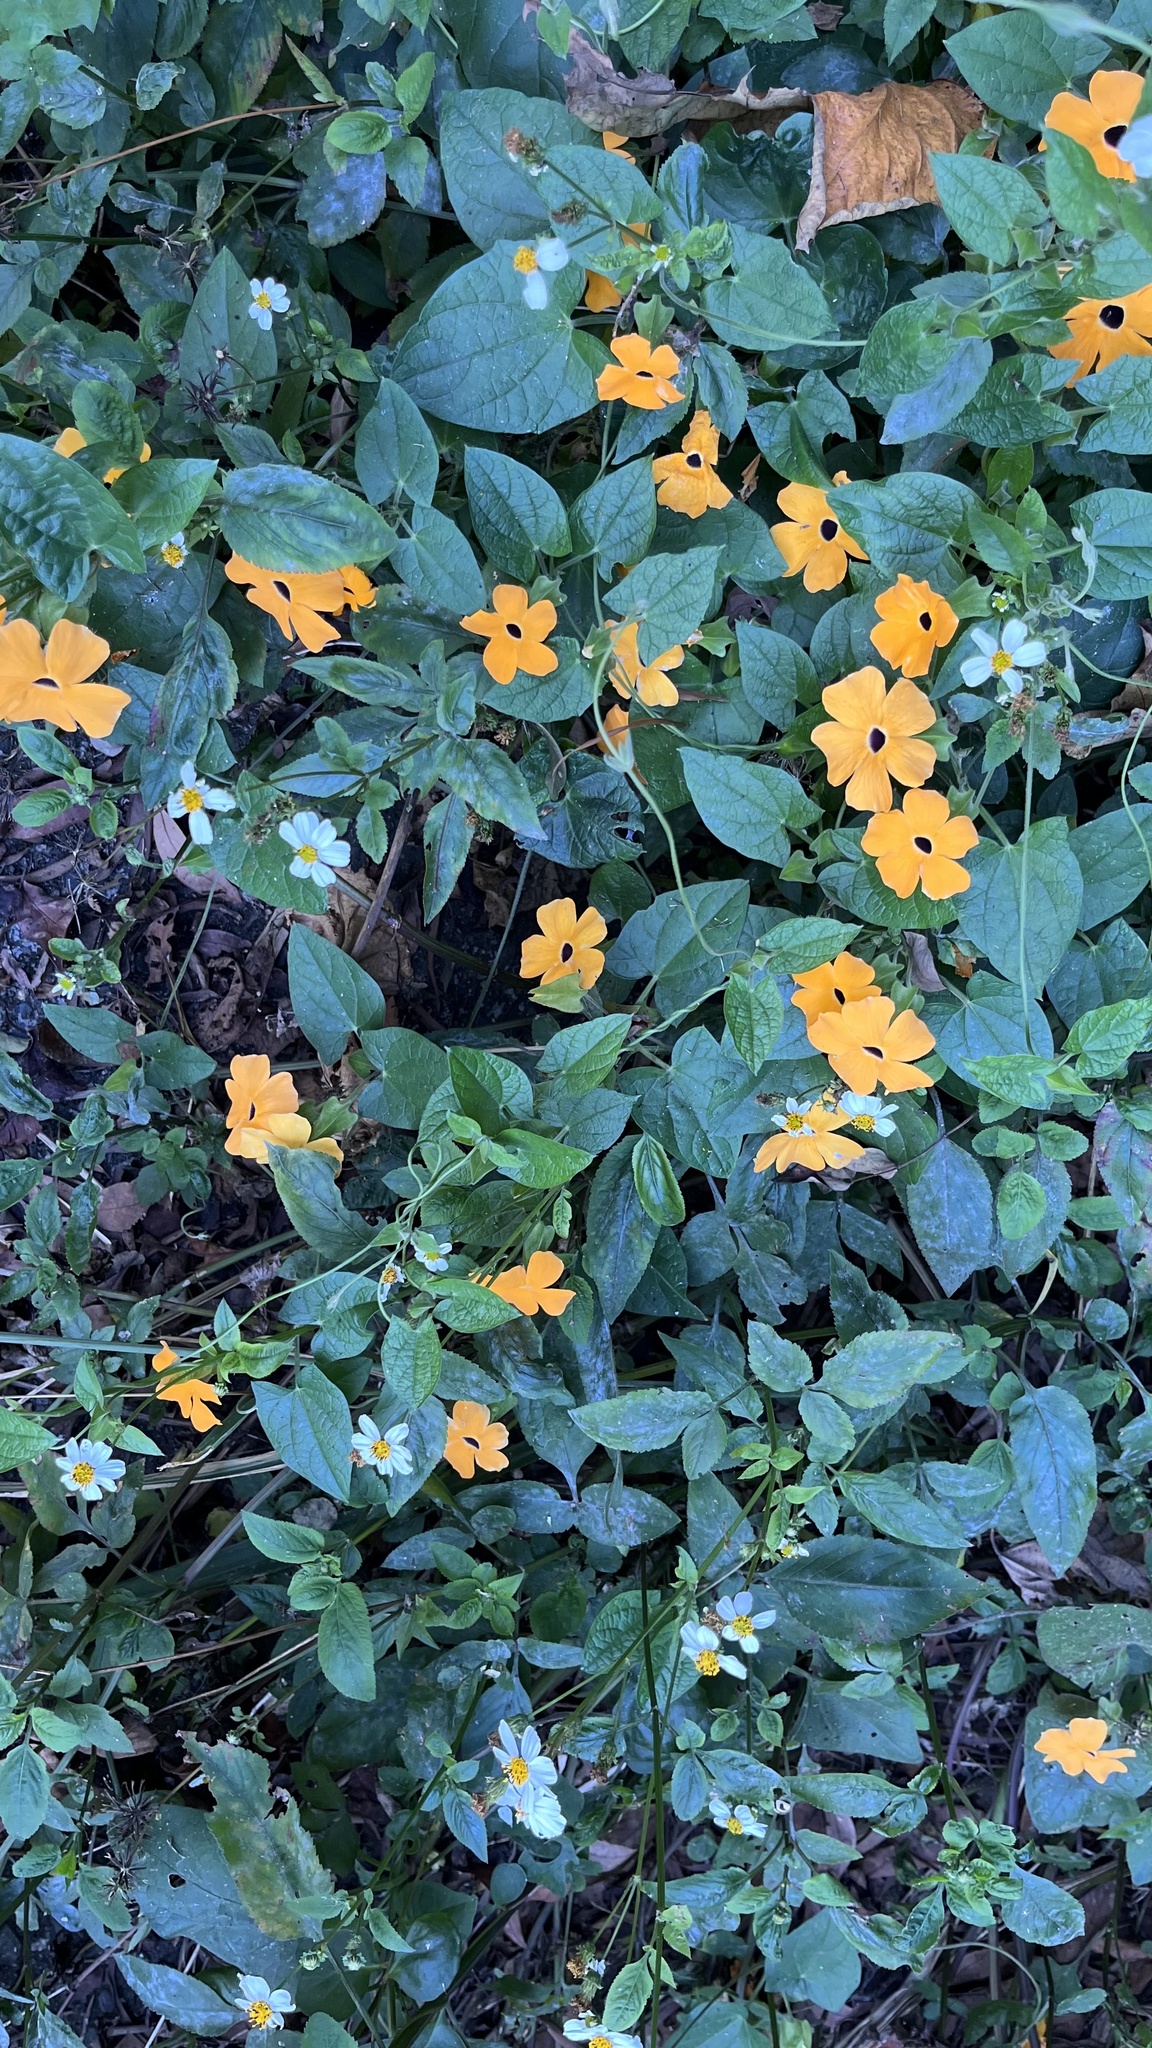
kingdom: Plantae
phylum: Tracheophyta
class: Magnoliopsida
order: Lamiales
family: Acanthaceae
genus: Thunbergia
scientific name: Thunbergia alata
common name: Blackeyed susan vine
